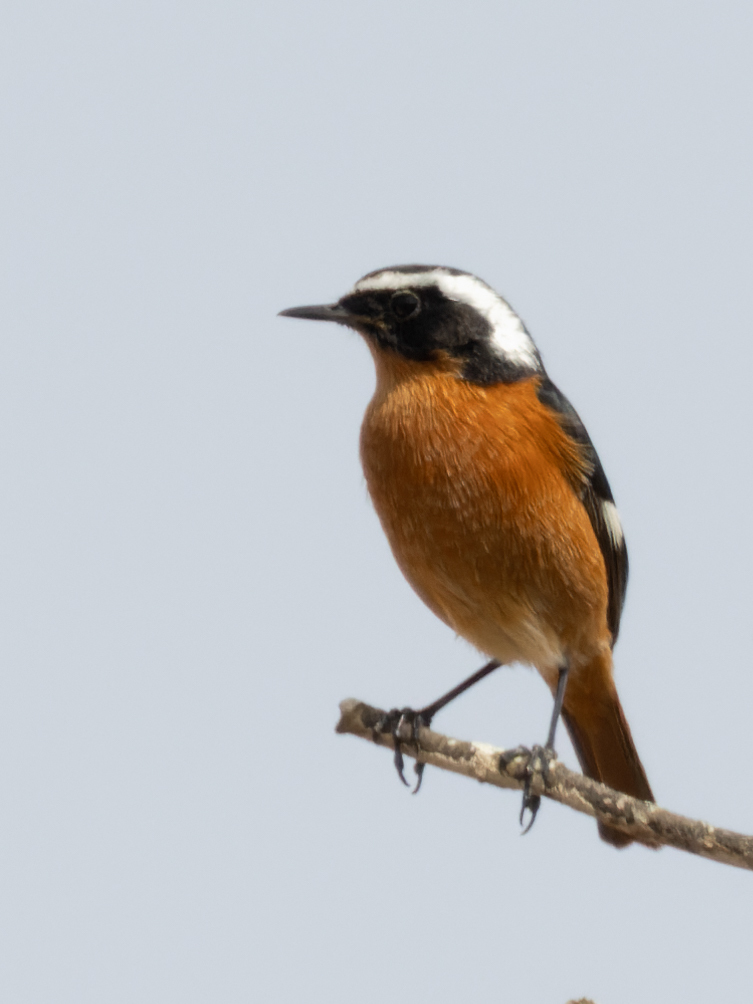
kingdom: Animalia
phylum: Chordata
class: Aves
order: Passeriformes
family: Muscicapidae
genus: Phoenicurus
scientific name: Phoenicurus moussieri
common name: Moussier's redstart
